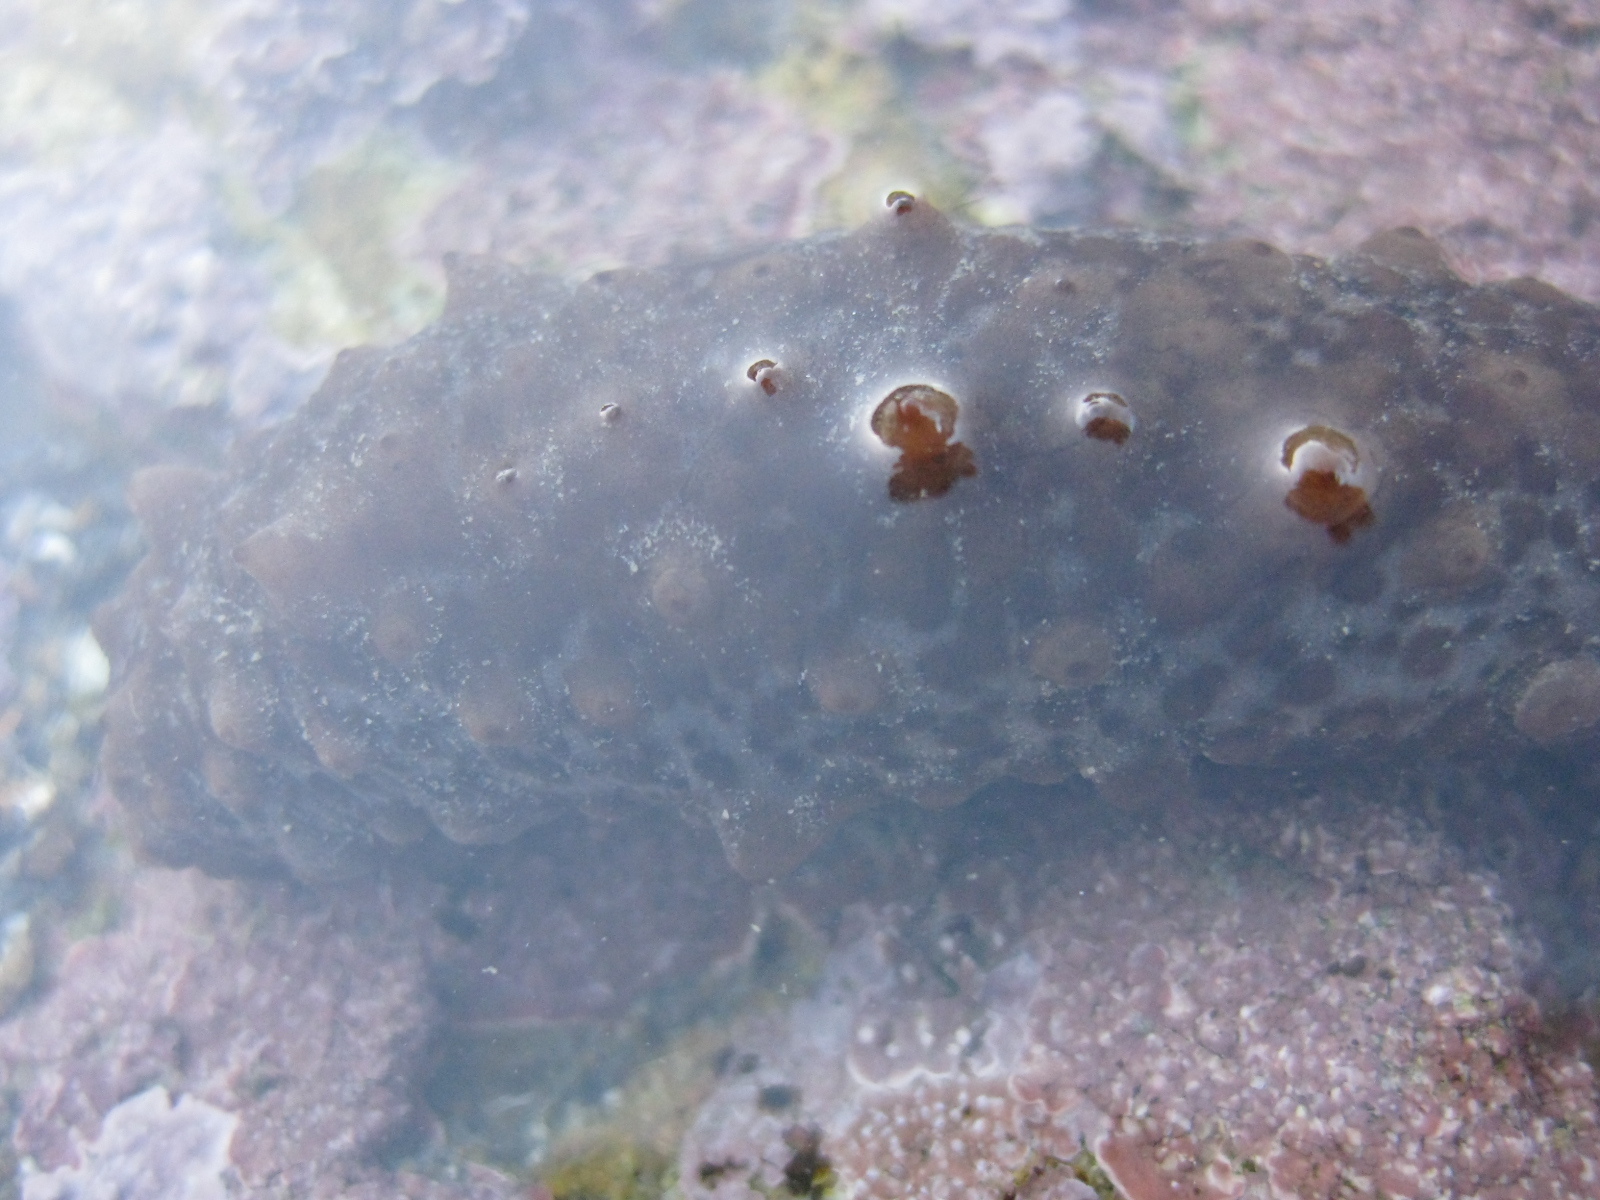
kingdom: Animalia
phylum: Echinodermata
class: Holothuroidea
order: Synallactida
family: Stichopodidae
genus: Australostichopus
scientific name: Australostichopus mollis
